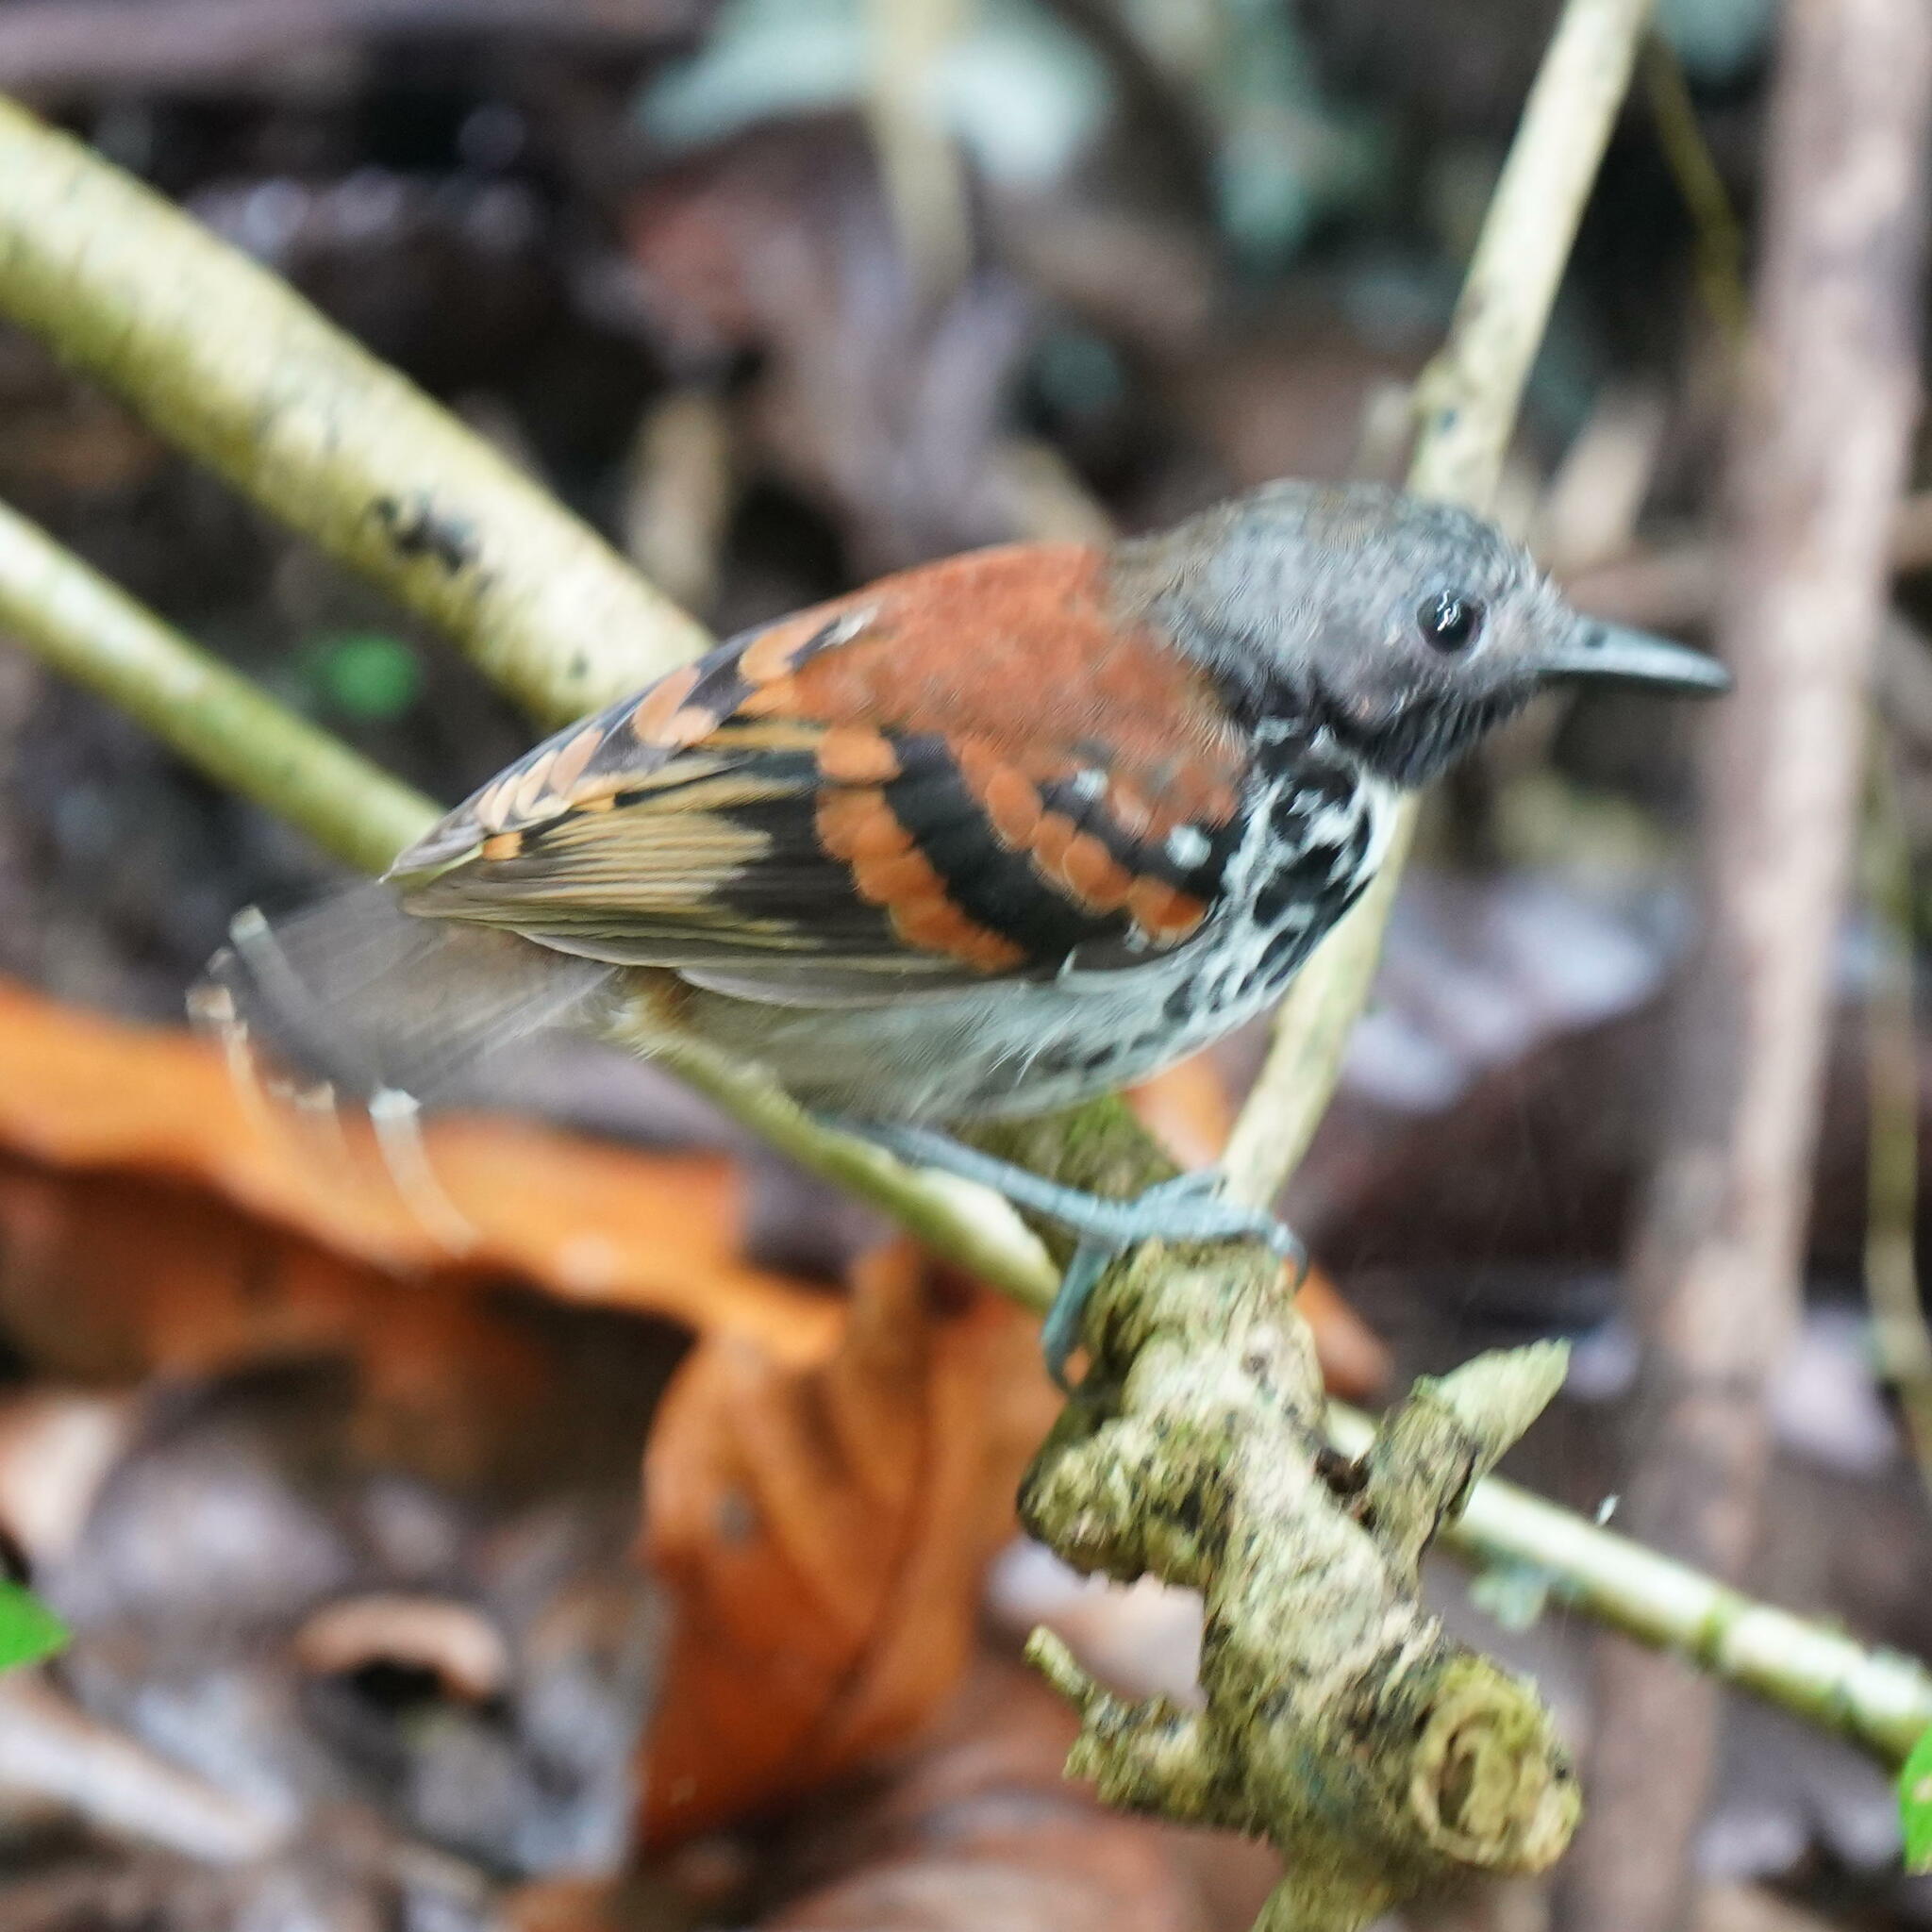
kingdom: Animalia
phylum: Chordata
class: Aves
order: Passeriformes
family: Thamnophilidae
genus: Hylophylax
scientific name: Hylophylax naevioides
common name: Spotted antbird
